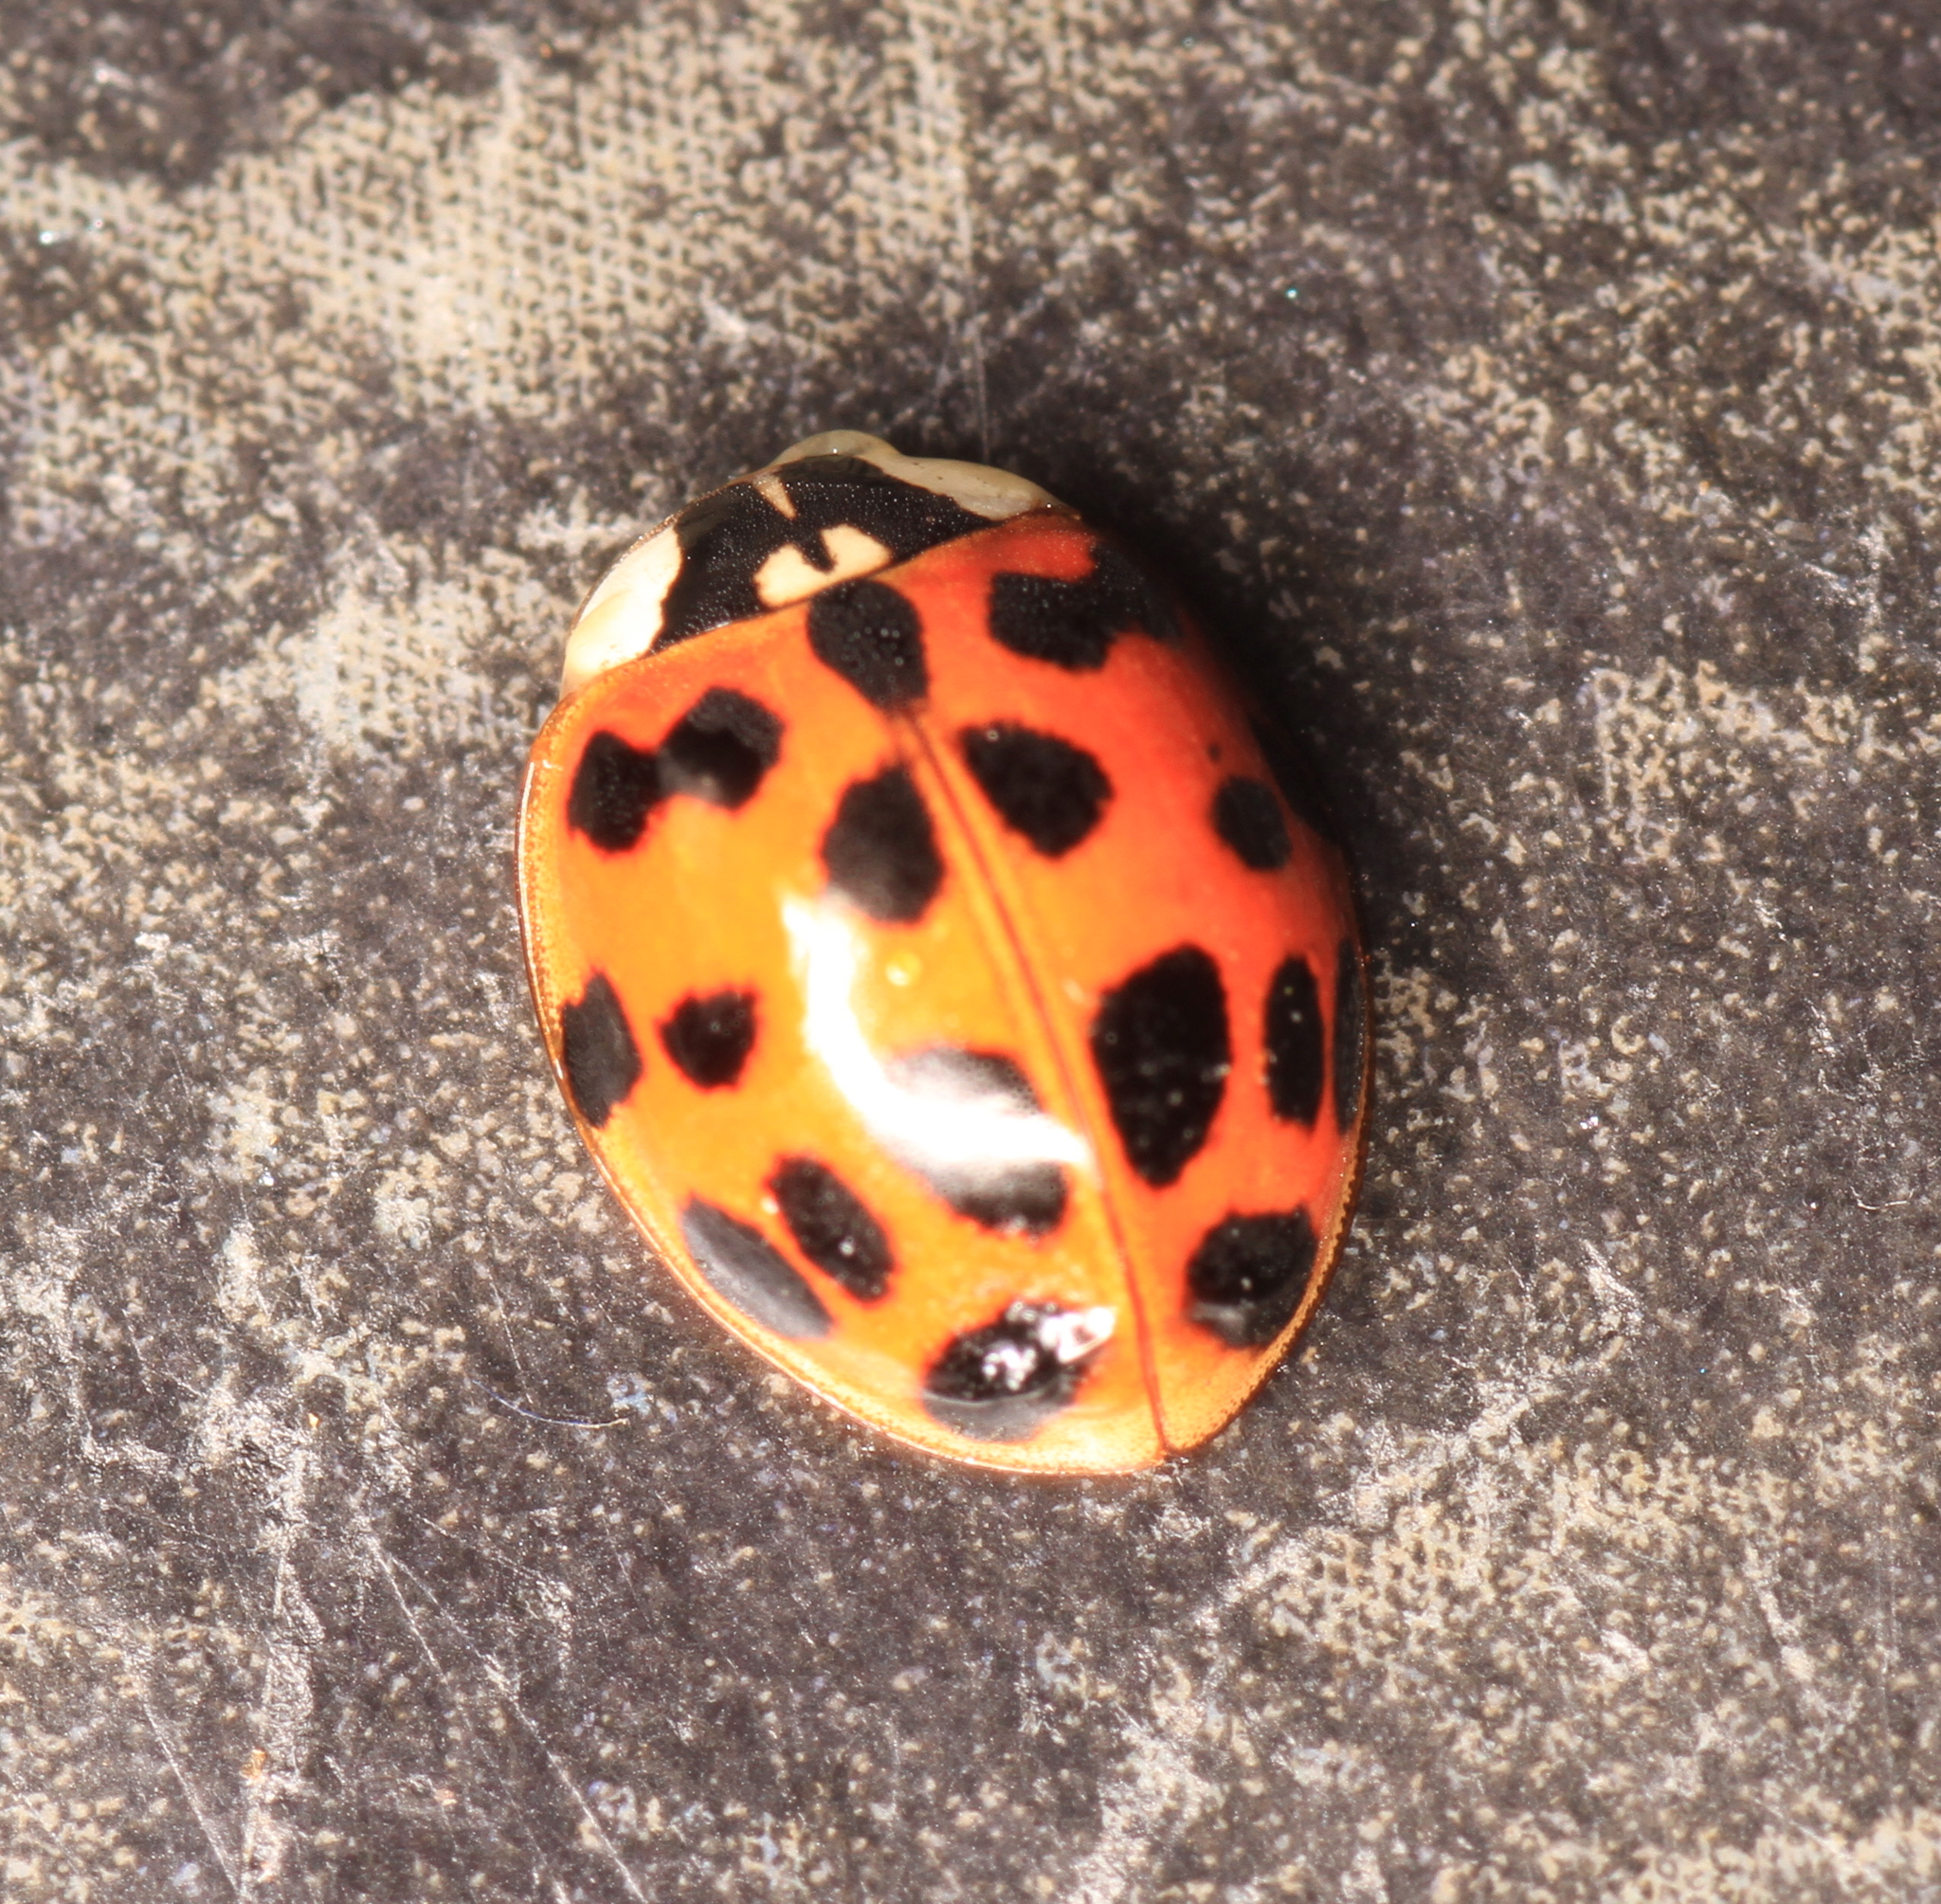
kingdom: Animalia
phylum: Arthropoda
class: Insecta
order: Coleoptera
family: Coccinellidae
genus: Harmonia
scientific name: Harmonia axyridis
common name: Harlequin ladybird
